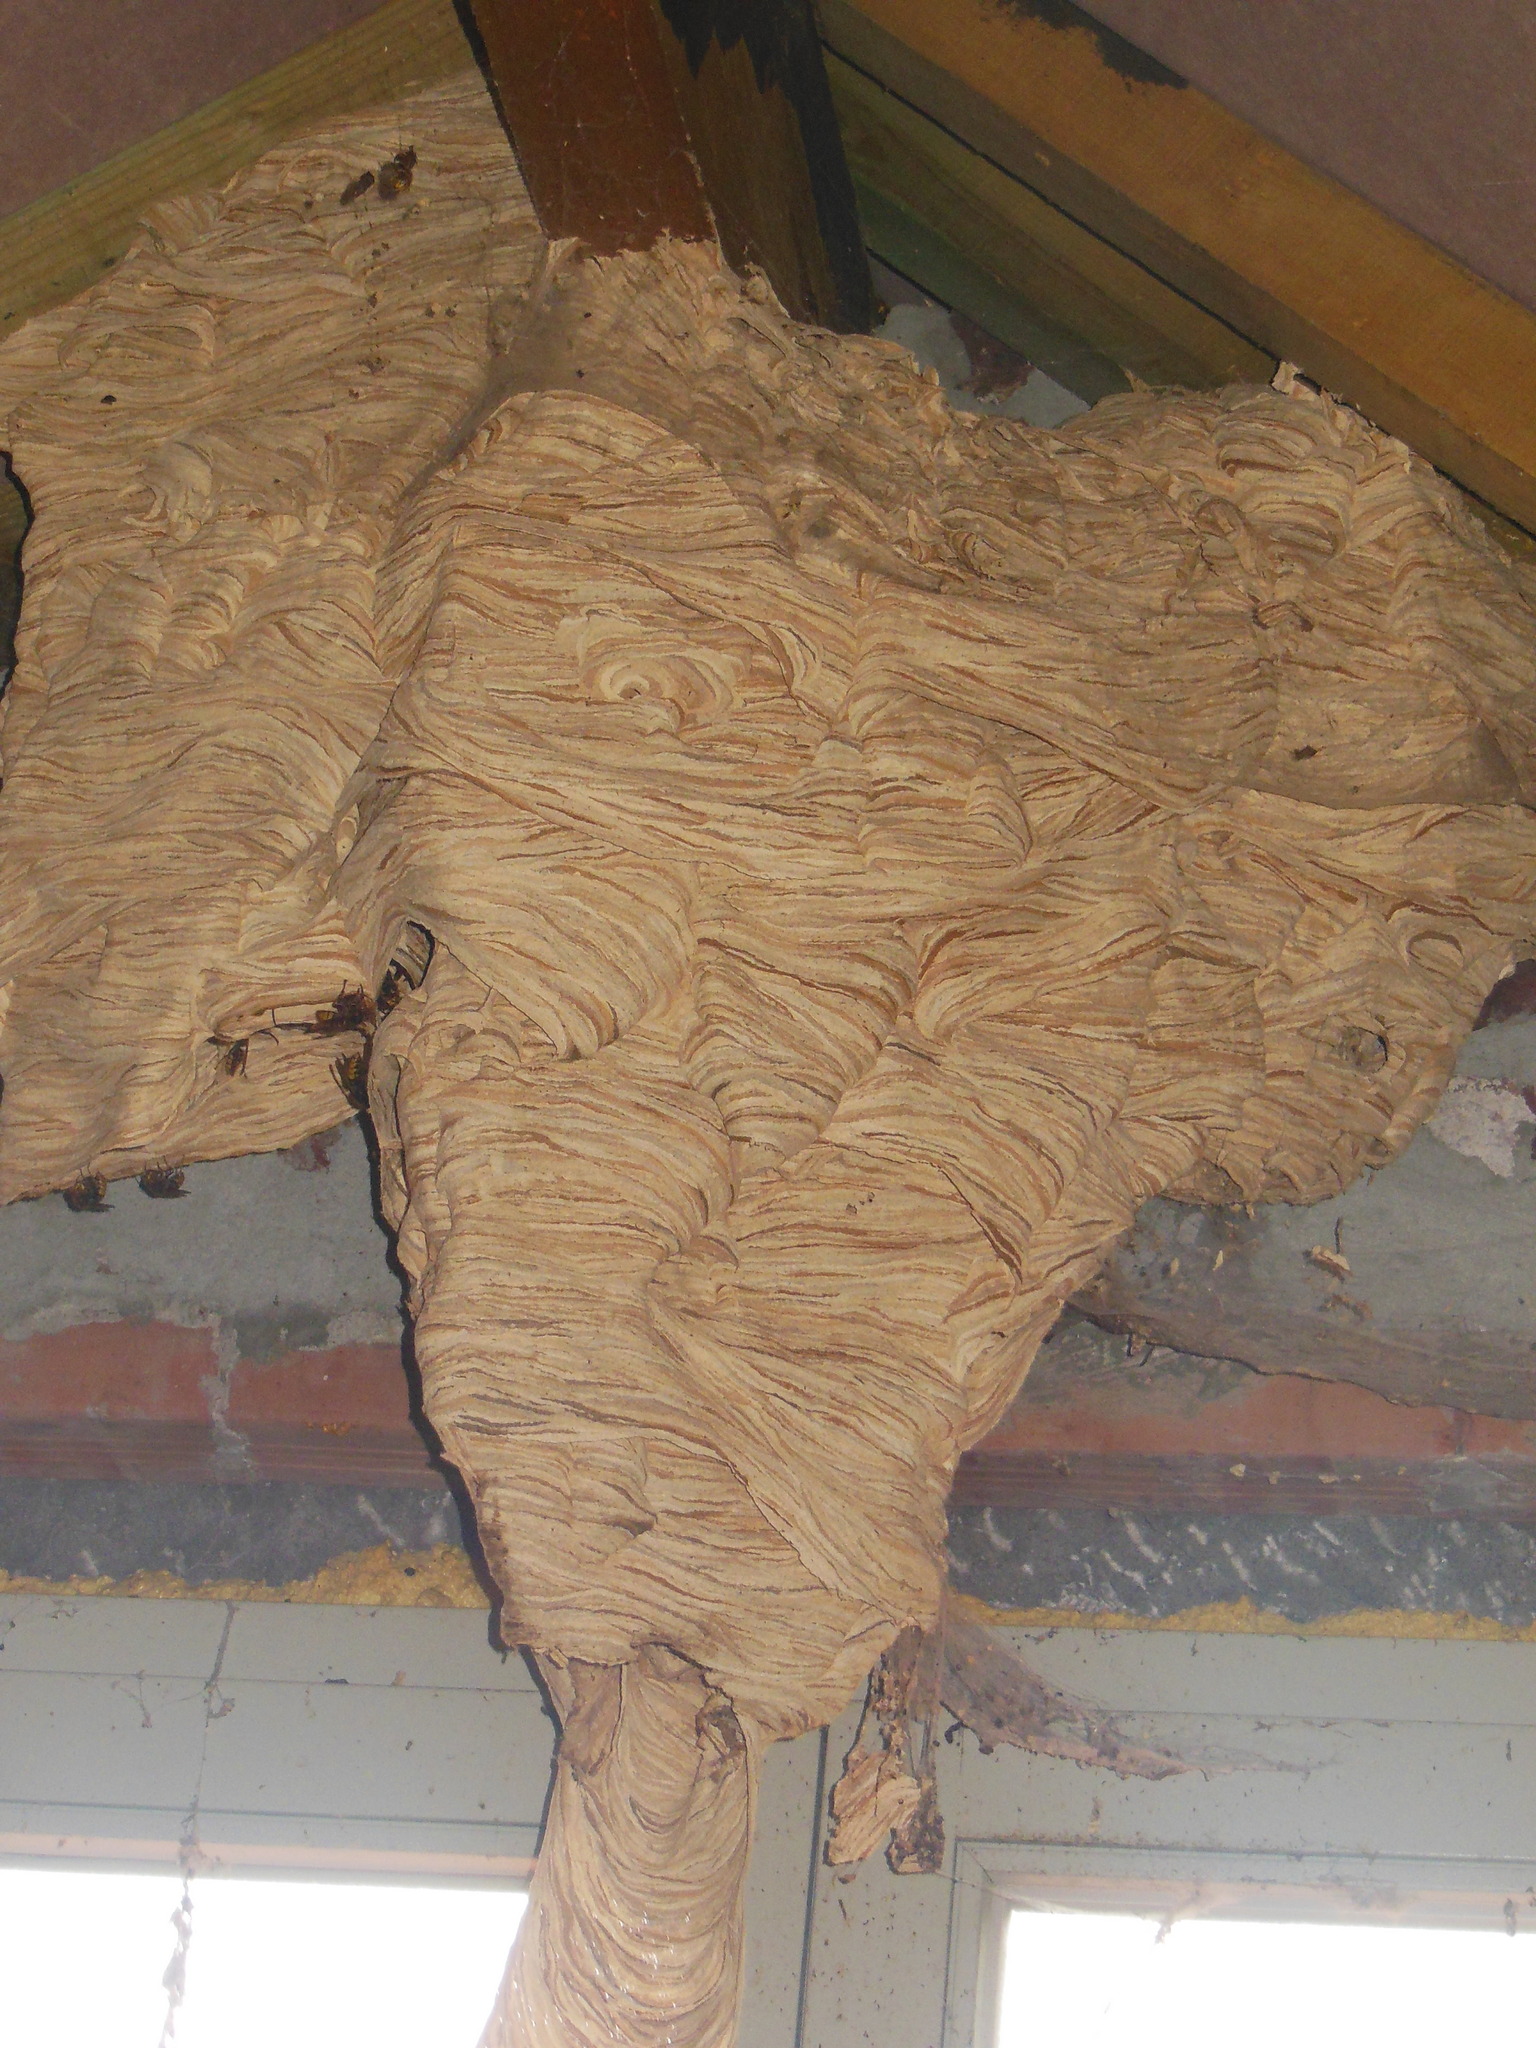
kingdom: Animalia
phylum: Arthropoda
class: Insecta
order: Hymenoptera
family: Vespidae
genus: Vespa
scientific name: Vespa crabro
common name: Hornet
